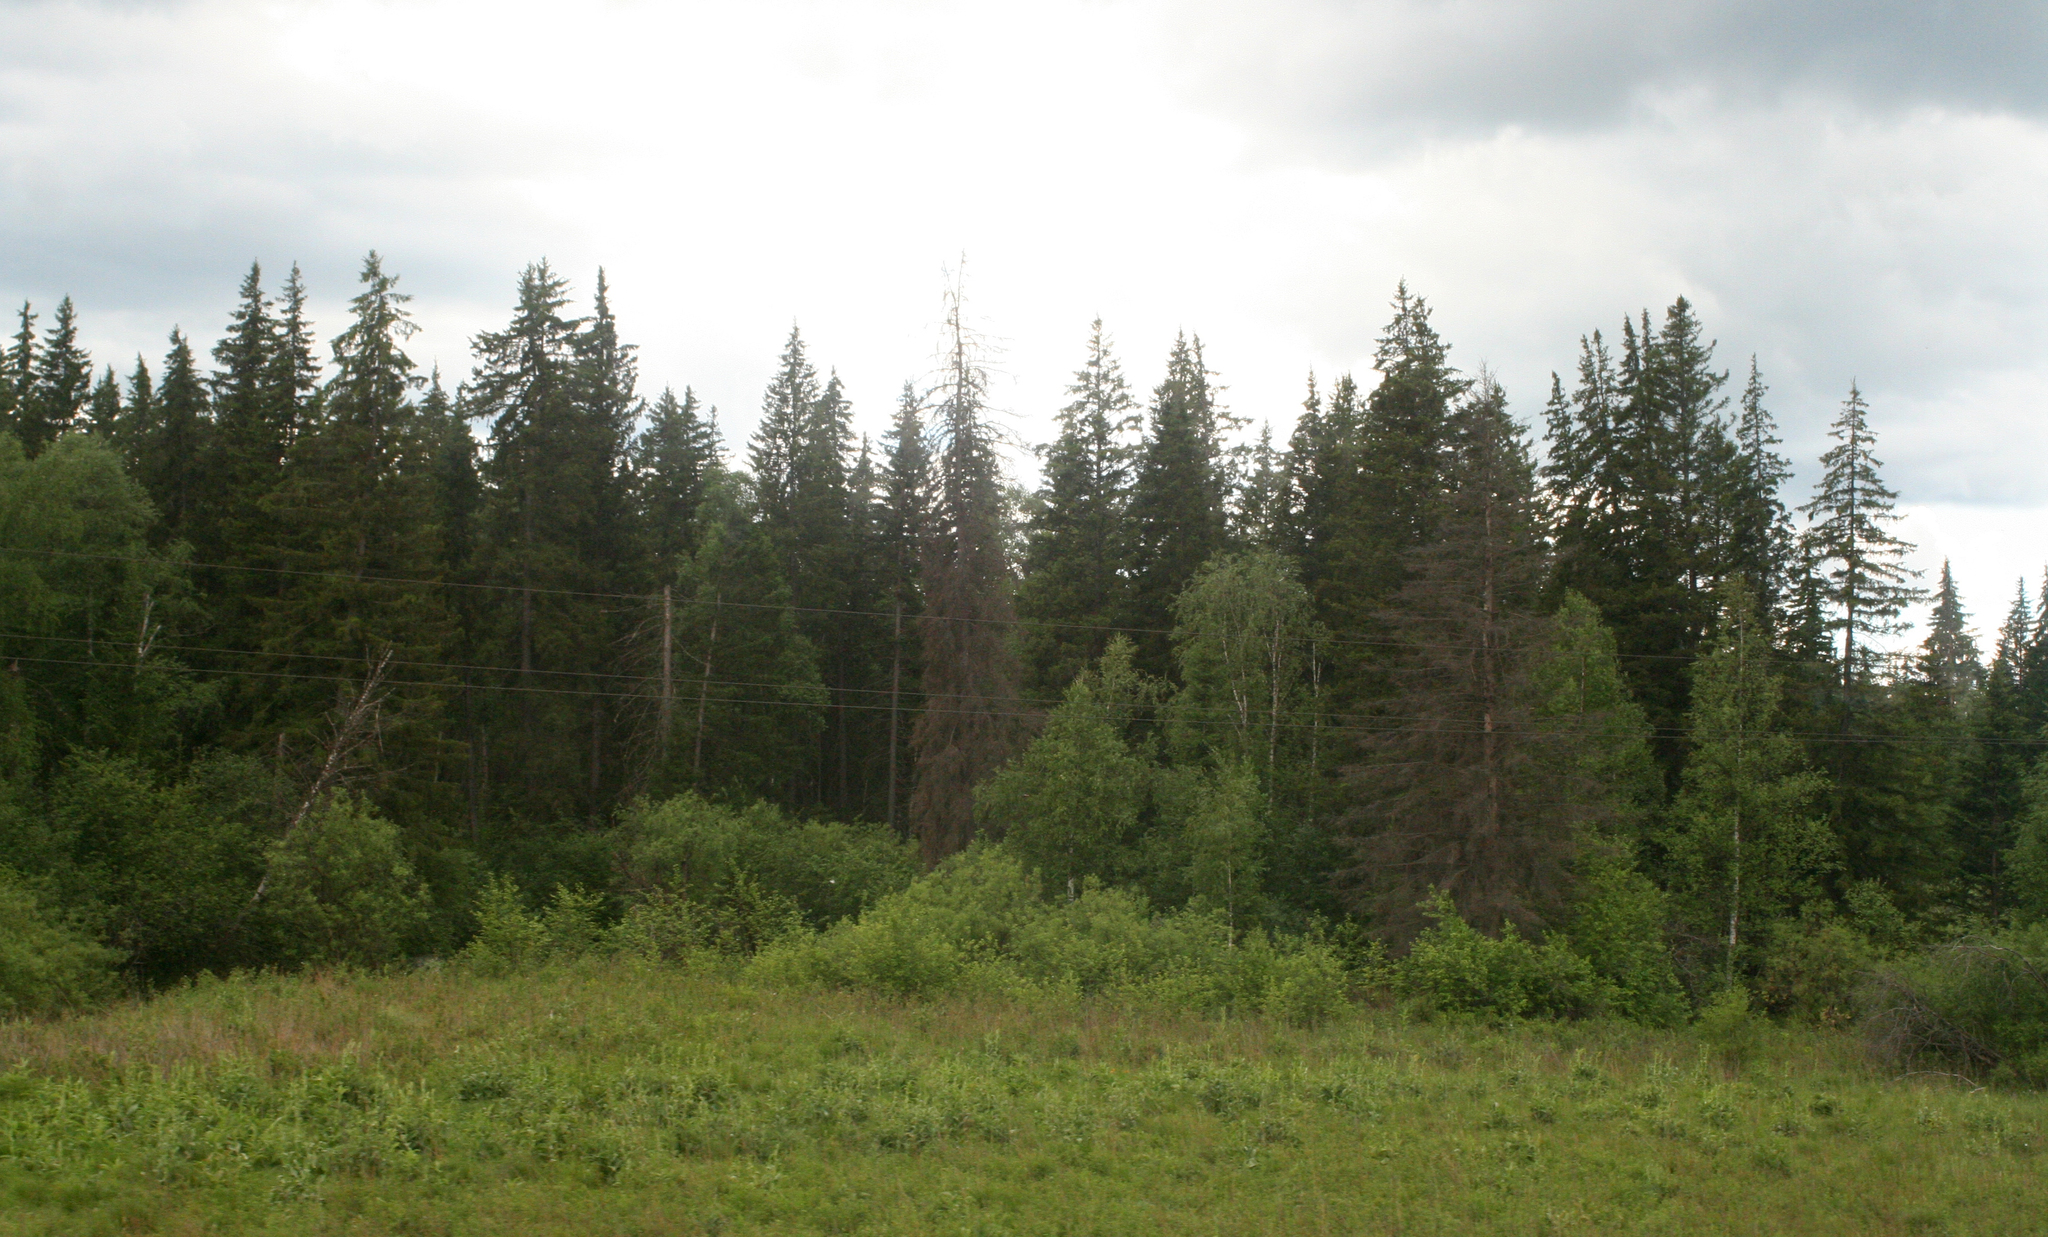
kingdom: Plantae
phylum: Tracheophyta
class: Pinopsida
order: Pinales
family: Pinaceae
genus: Picea
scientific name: Picea obovata
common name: Siberian spruce
